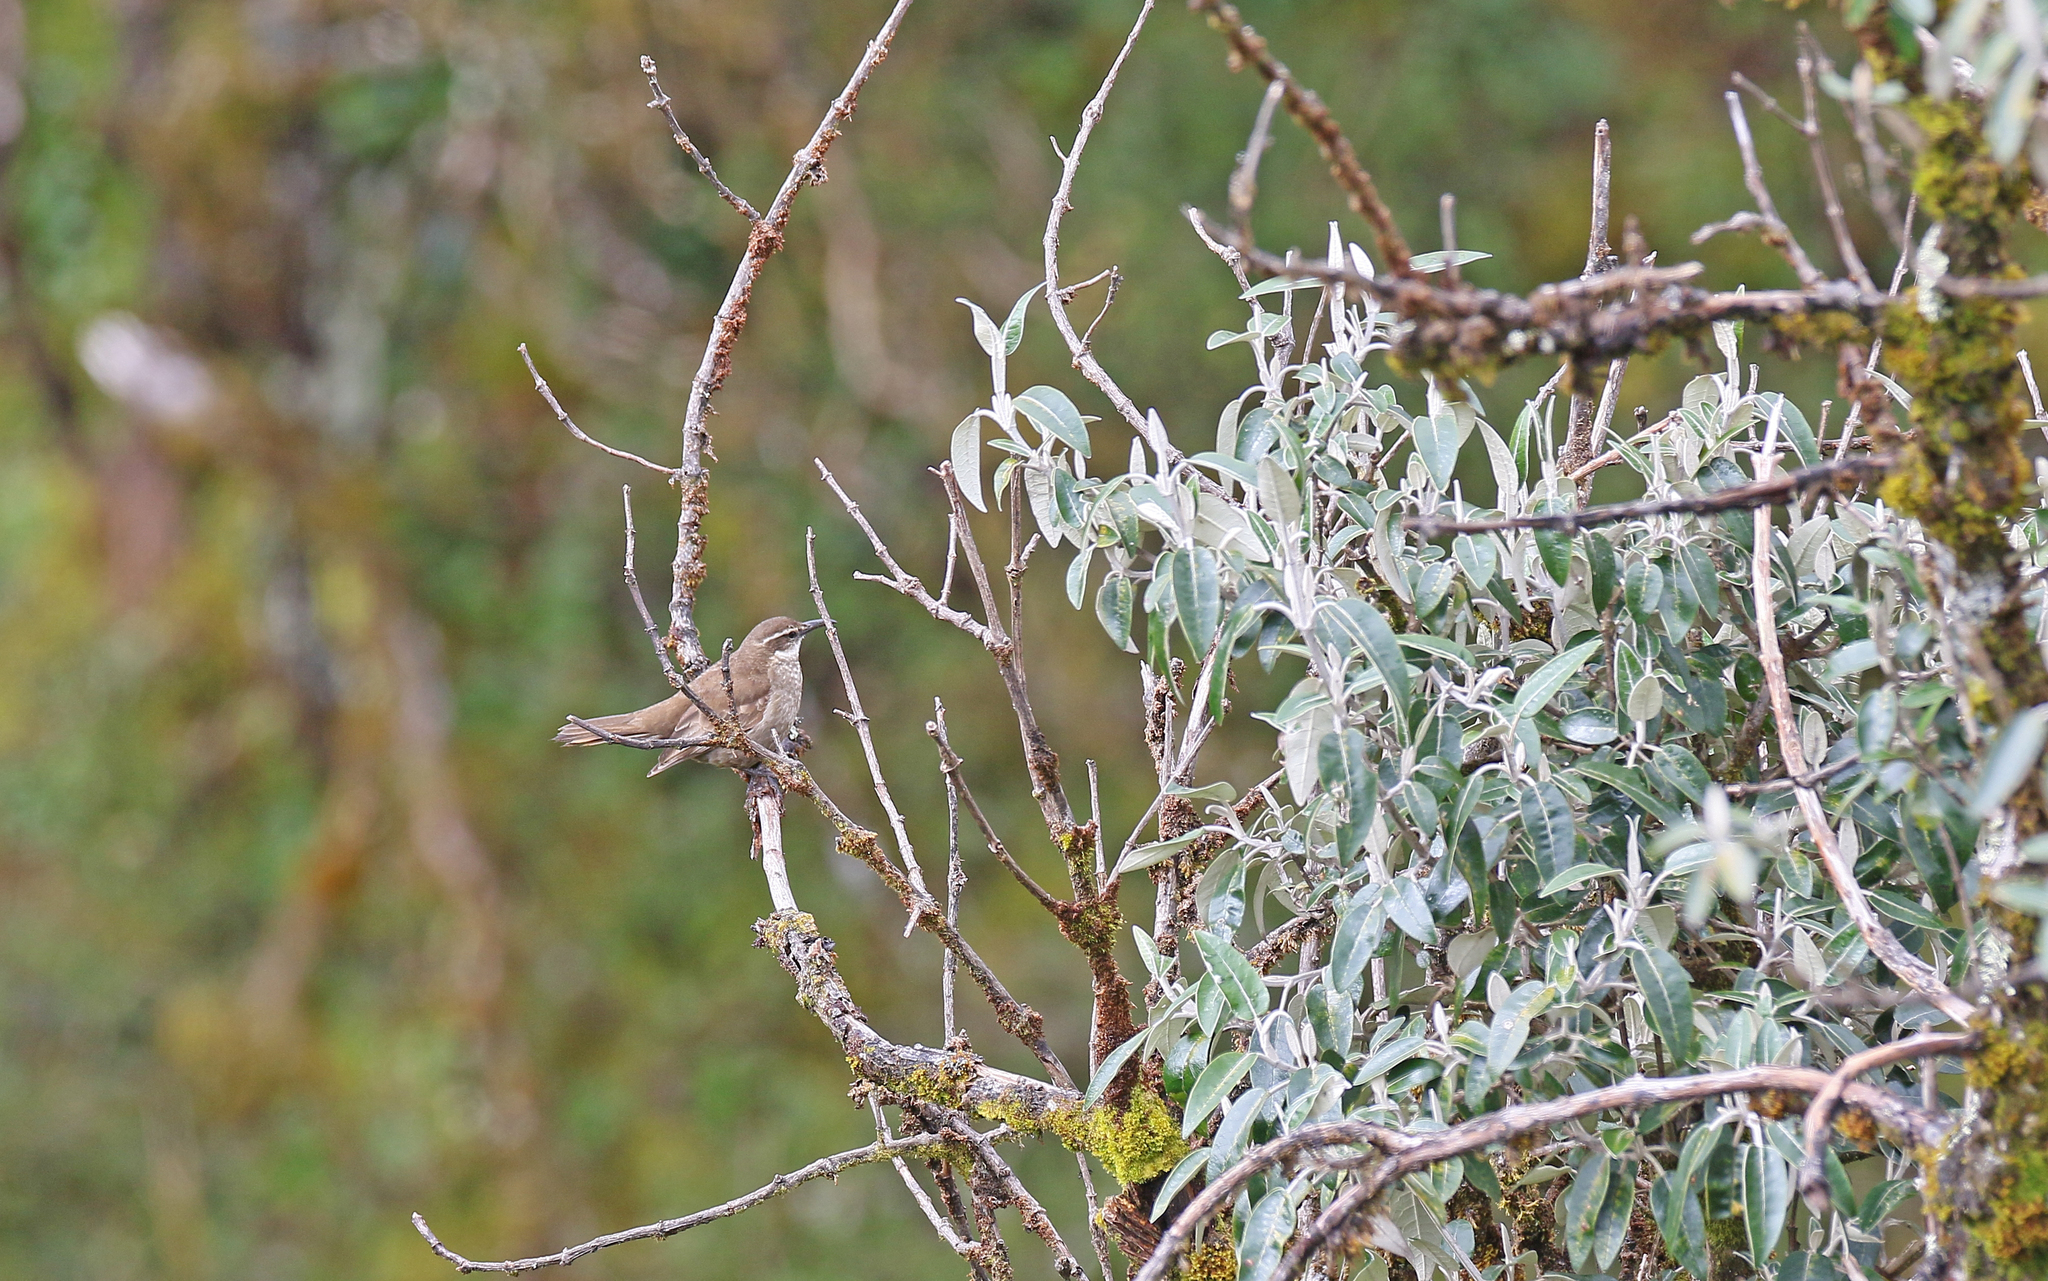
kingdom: Animalia
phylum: Chordata
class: Aves
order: Passeriformes
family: Furnariidae
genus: Cinclodes
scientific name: Cinclodes excelsior
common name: Stout-billed cinclodes
